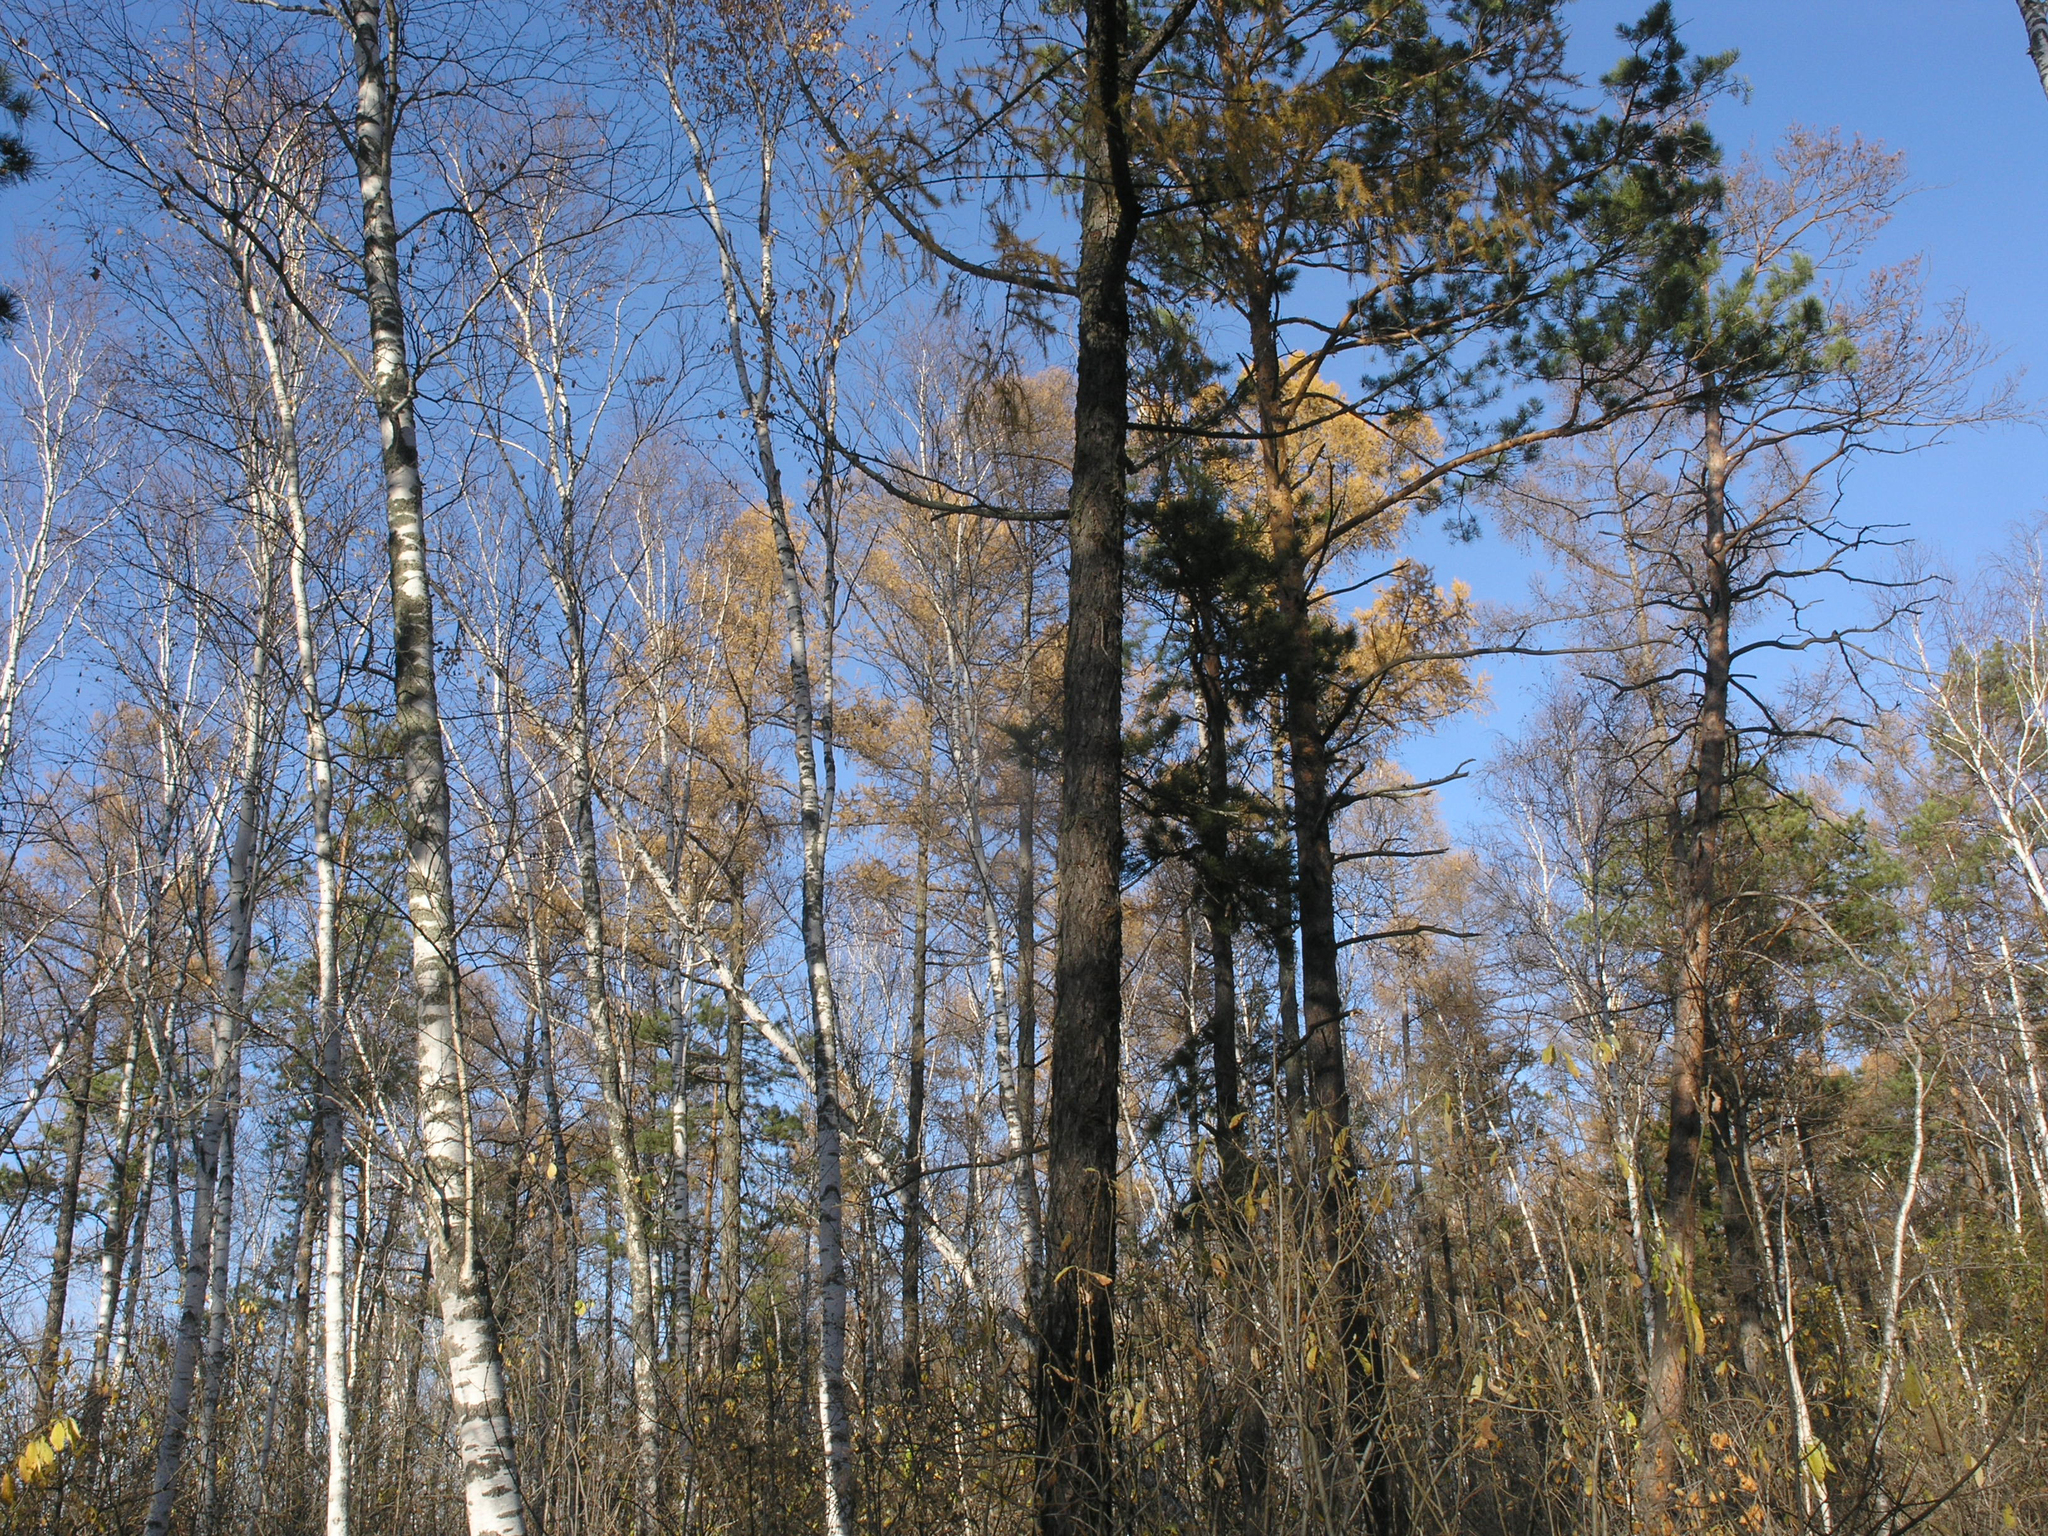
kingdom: Plantae
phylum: Tracheophyta
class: Pinopsida
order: Pinales
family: Pinaceae
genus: Pinus
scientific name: Pinus sylvestris
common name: Scots pine
